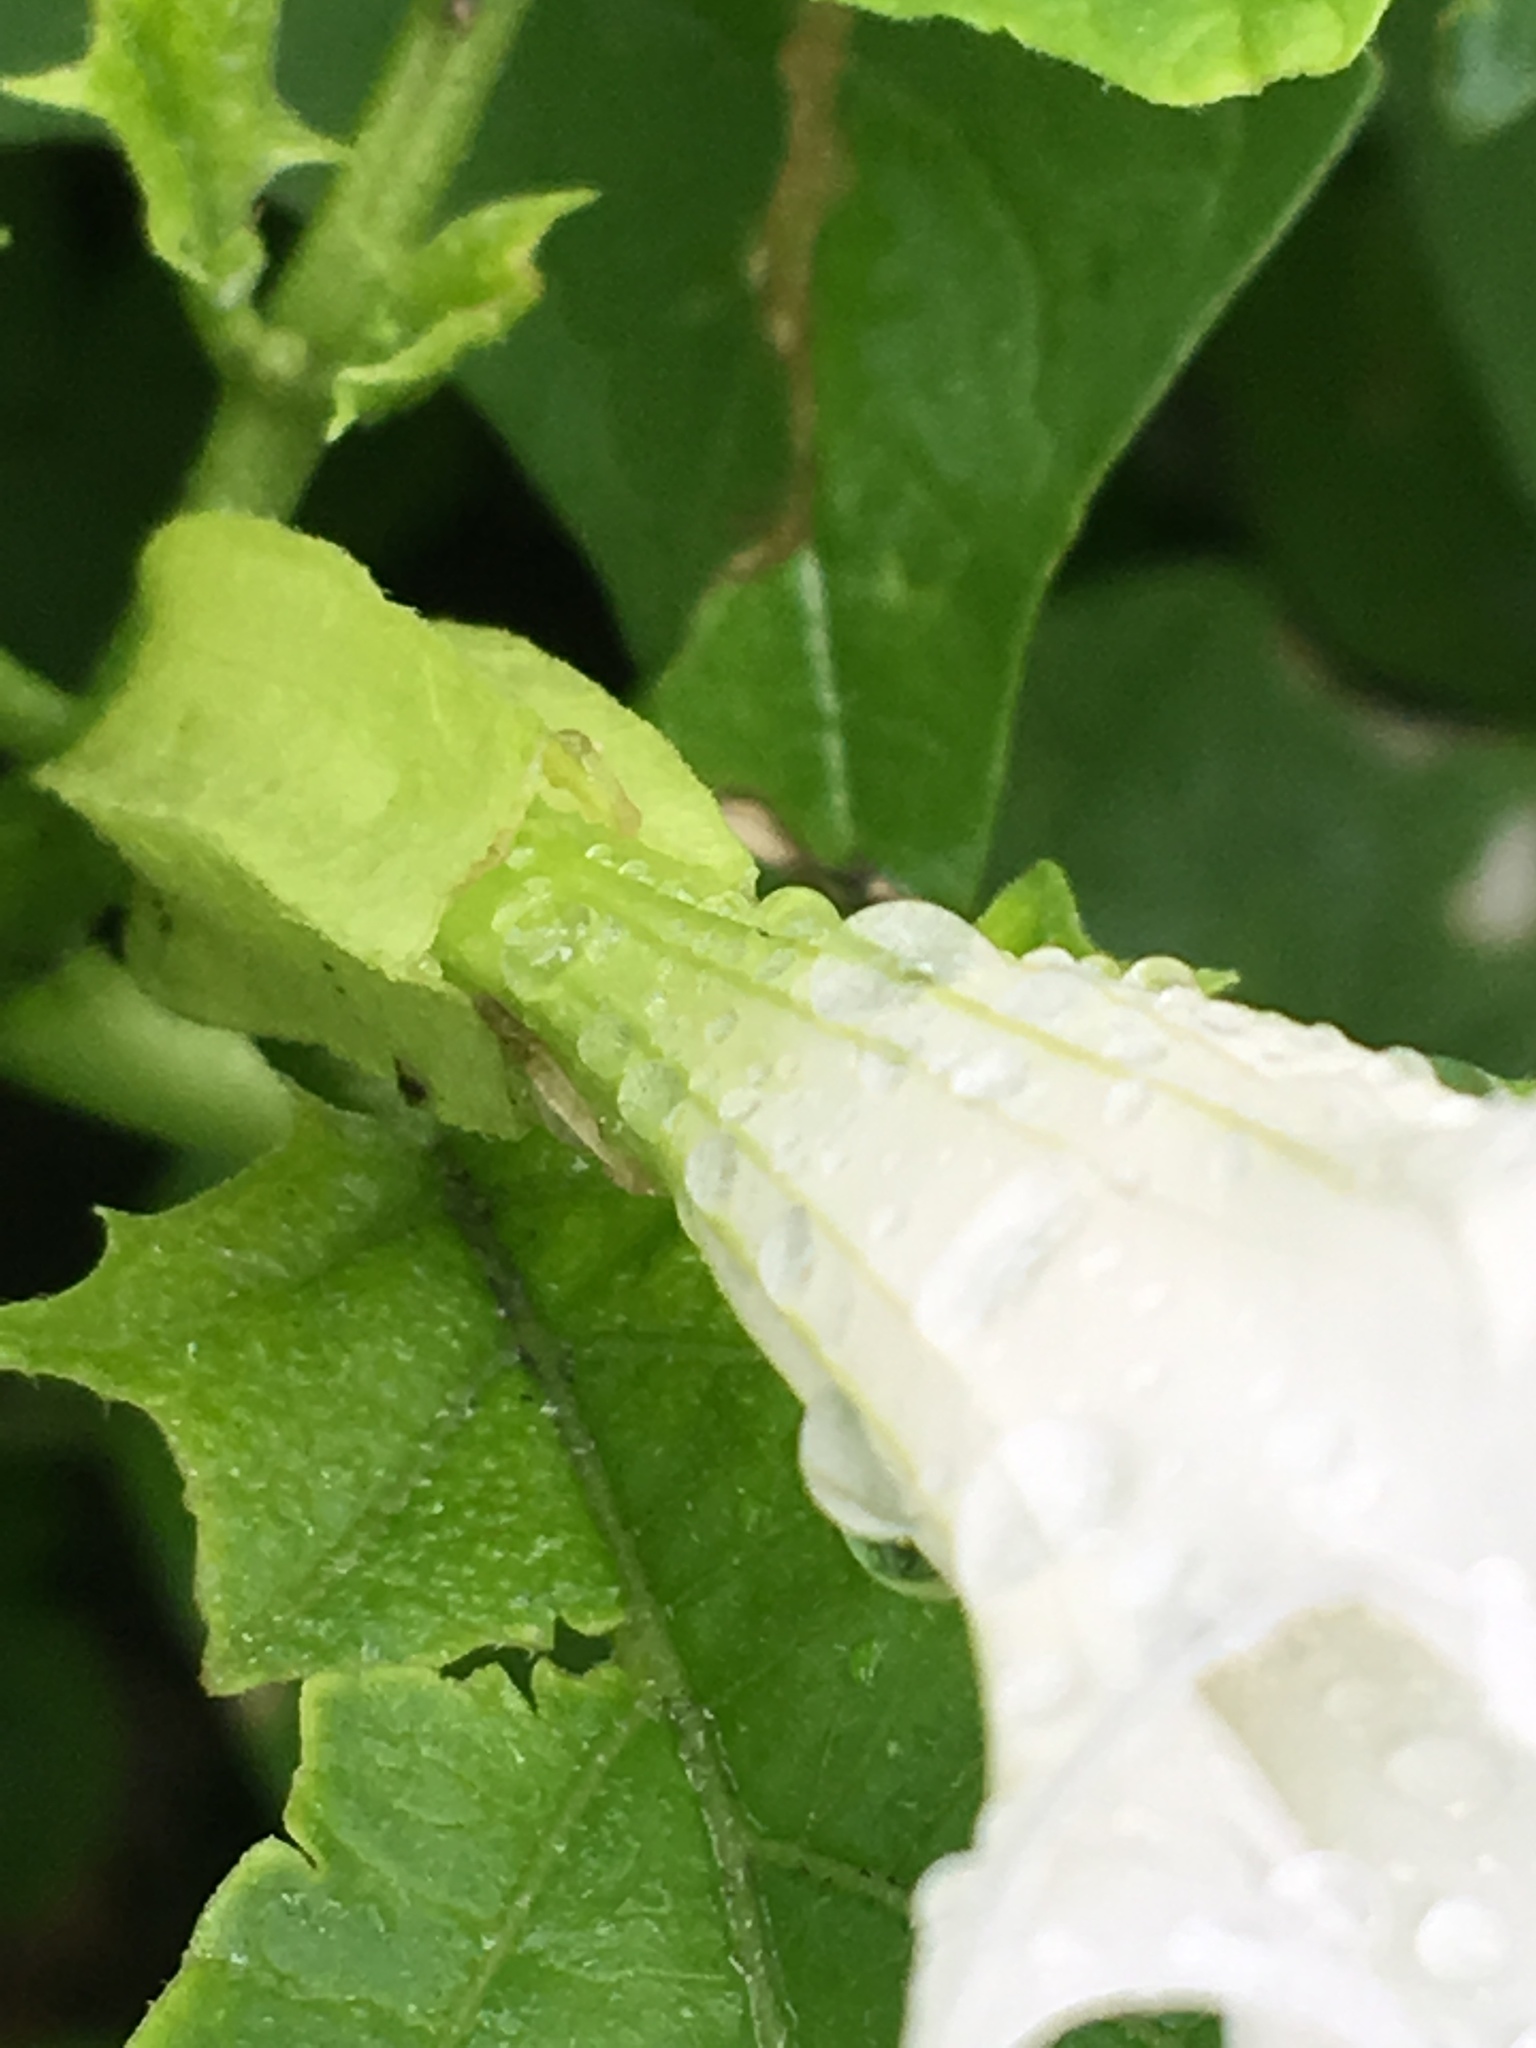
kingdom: Plantae
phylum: Tracheophyta
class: Magnoliopsida
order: Solanales
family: Solanaceae
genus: Datura
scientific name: Datura stramonium
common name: Thorn-apple
